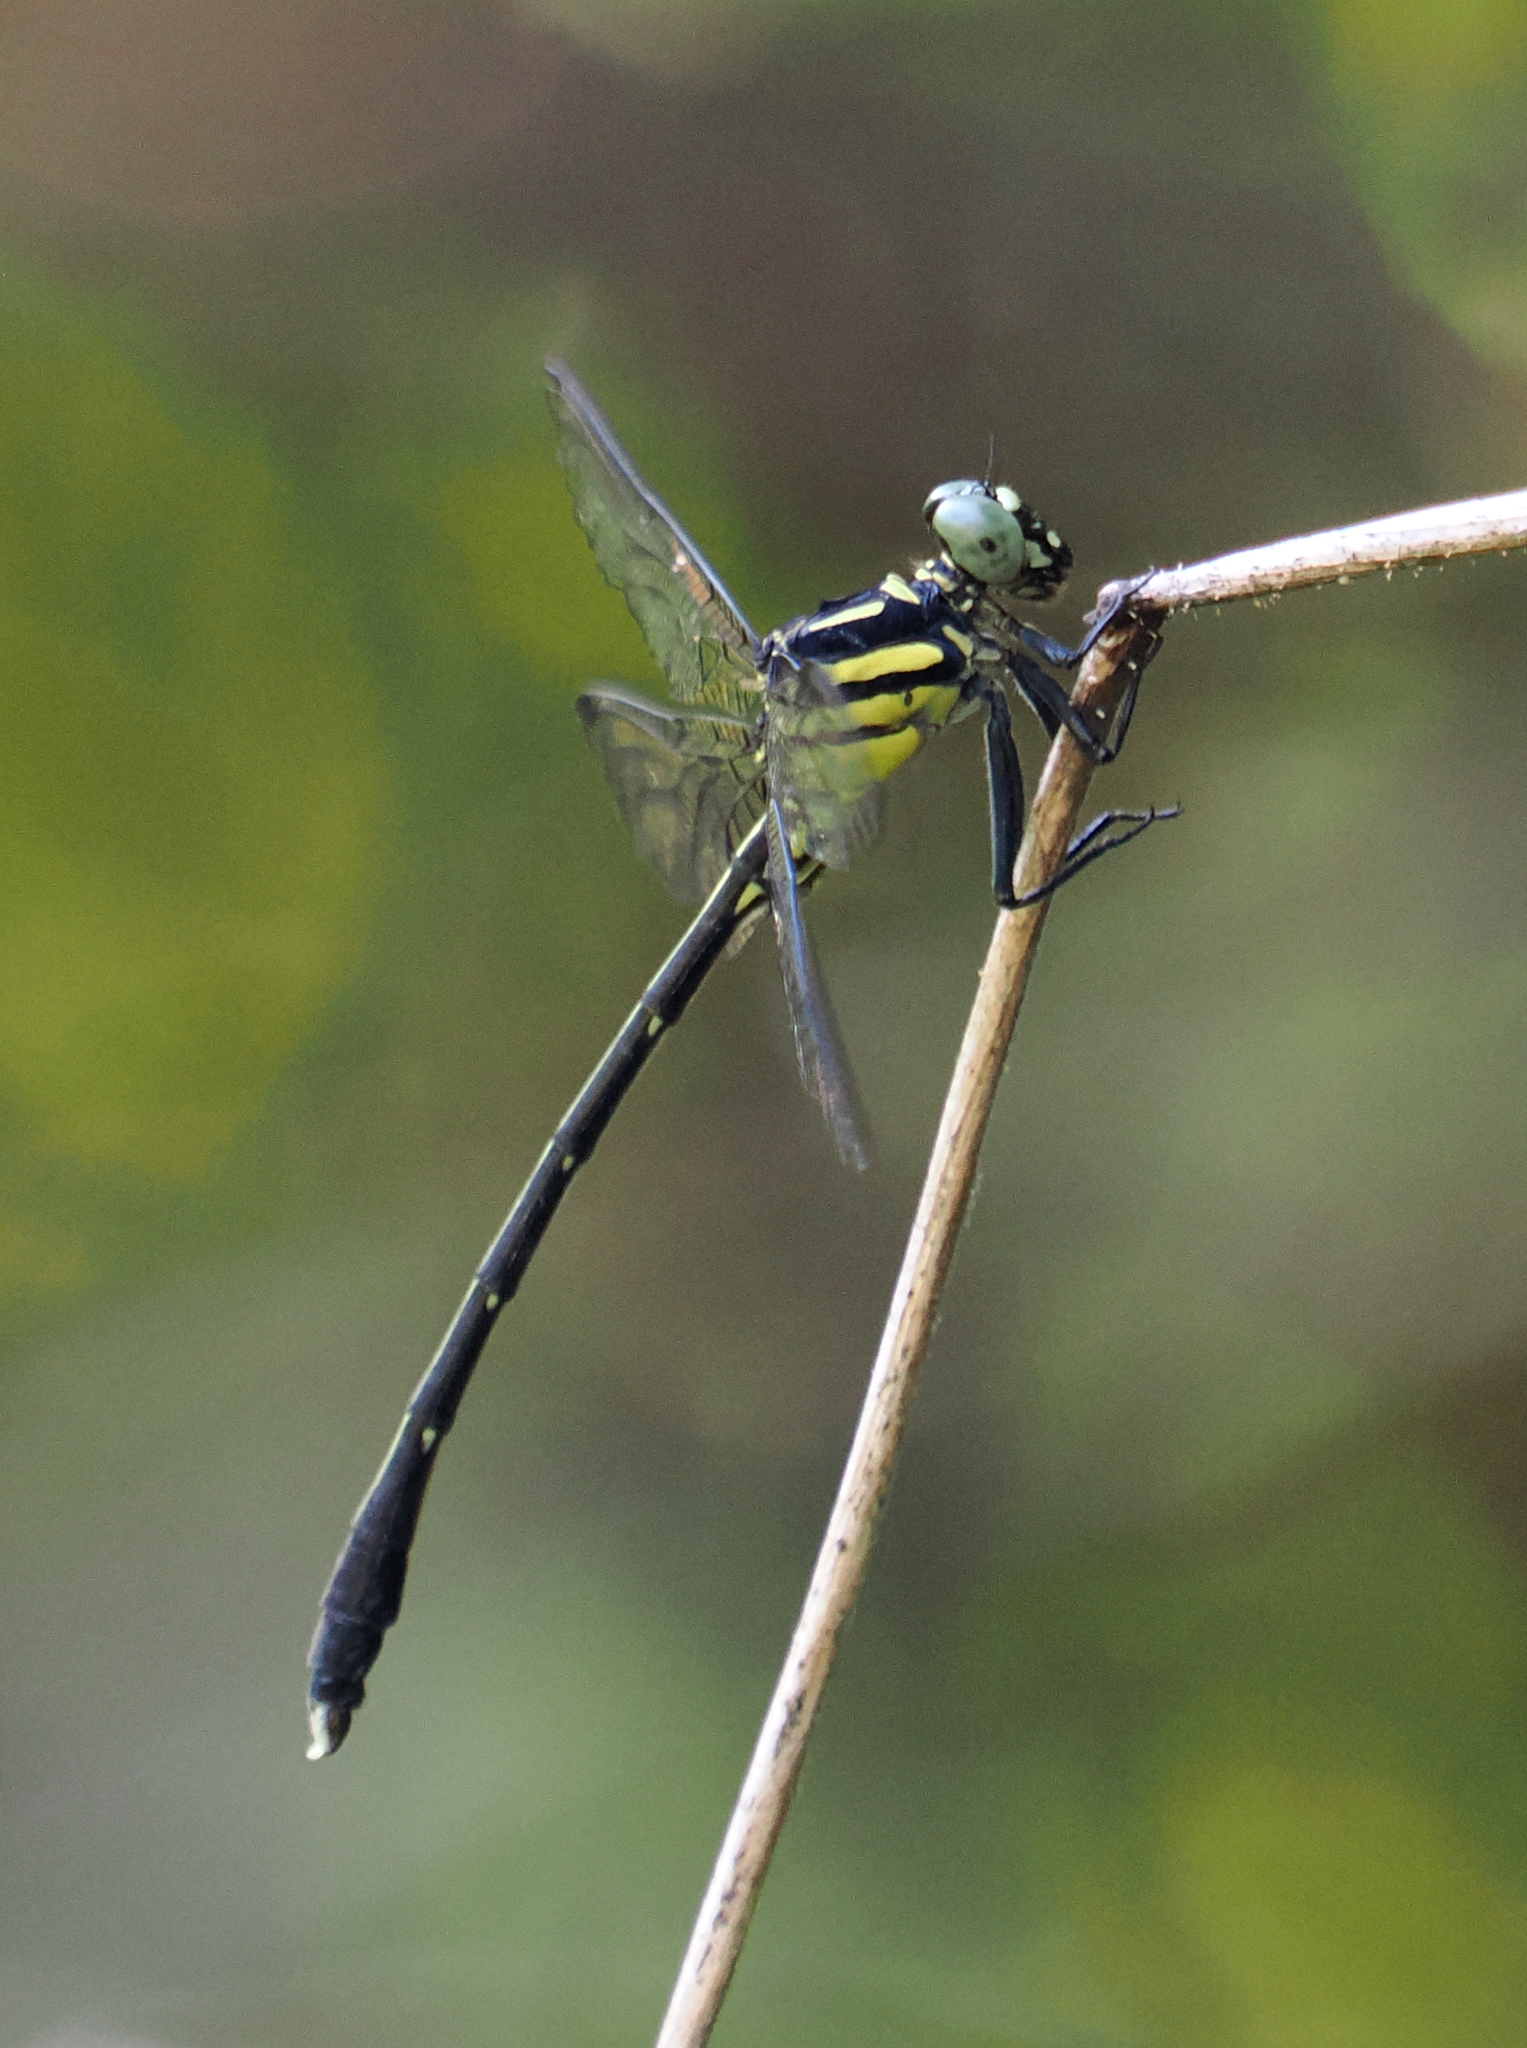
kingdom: Animalia
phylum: Arthropoda
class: Insecta
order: Odonata
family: Gomphidae
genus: Heliogomphus
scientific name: Heliogomphus selysi
